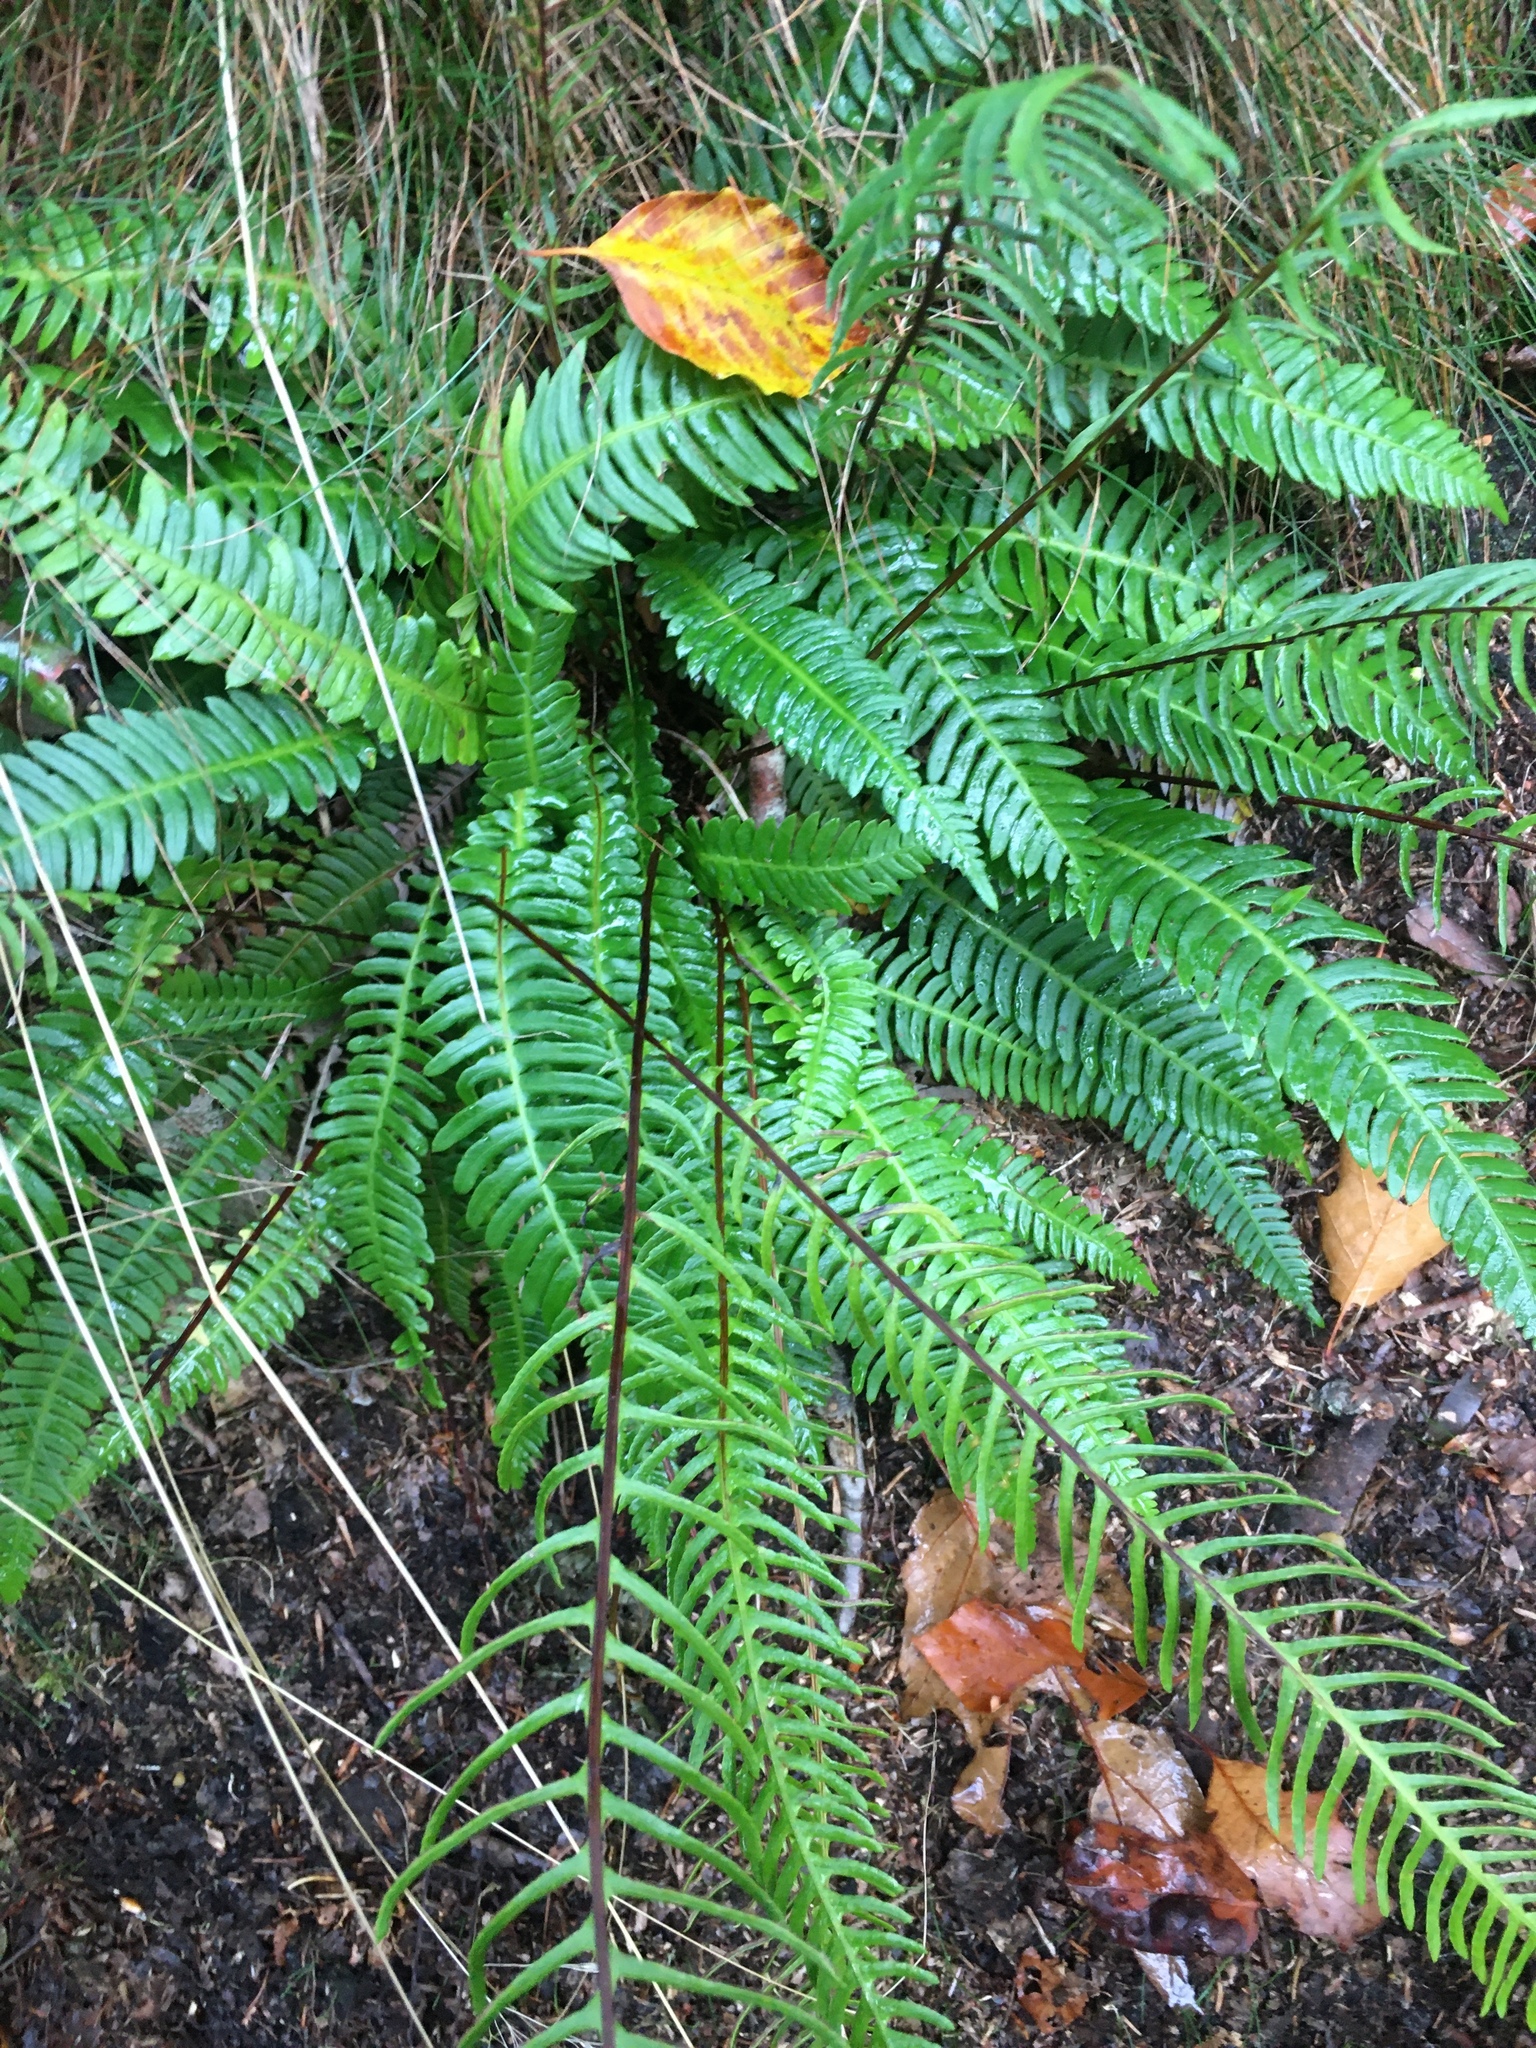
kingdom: Plantae
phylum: Tracheophyta
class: Polypodiopsida
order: Polypodiales
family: Blechnaceae
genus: Struthiopteris
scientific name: Struthiopteris spicant
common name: Deer fern
